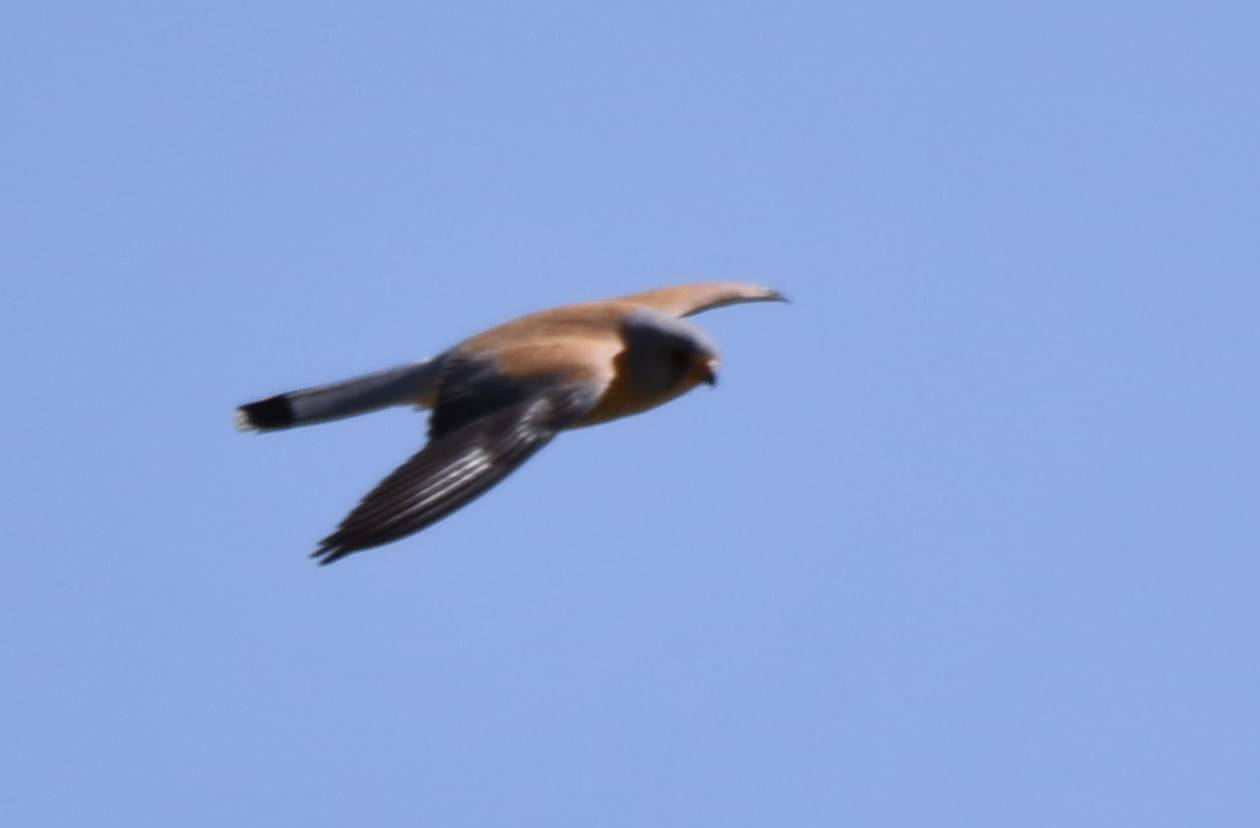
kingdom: Animalia
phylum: Chordata
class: Aves
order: Falconiformes
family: Falconidae
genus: Falco
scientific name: Falco naumanni
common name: Lesser kestrel
